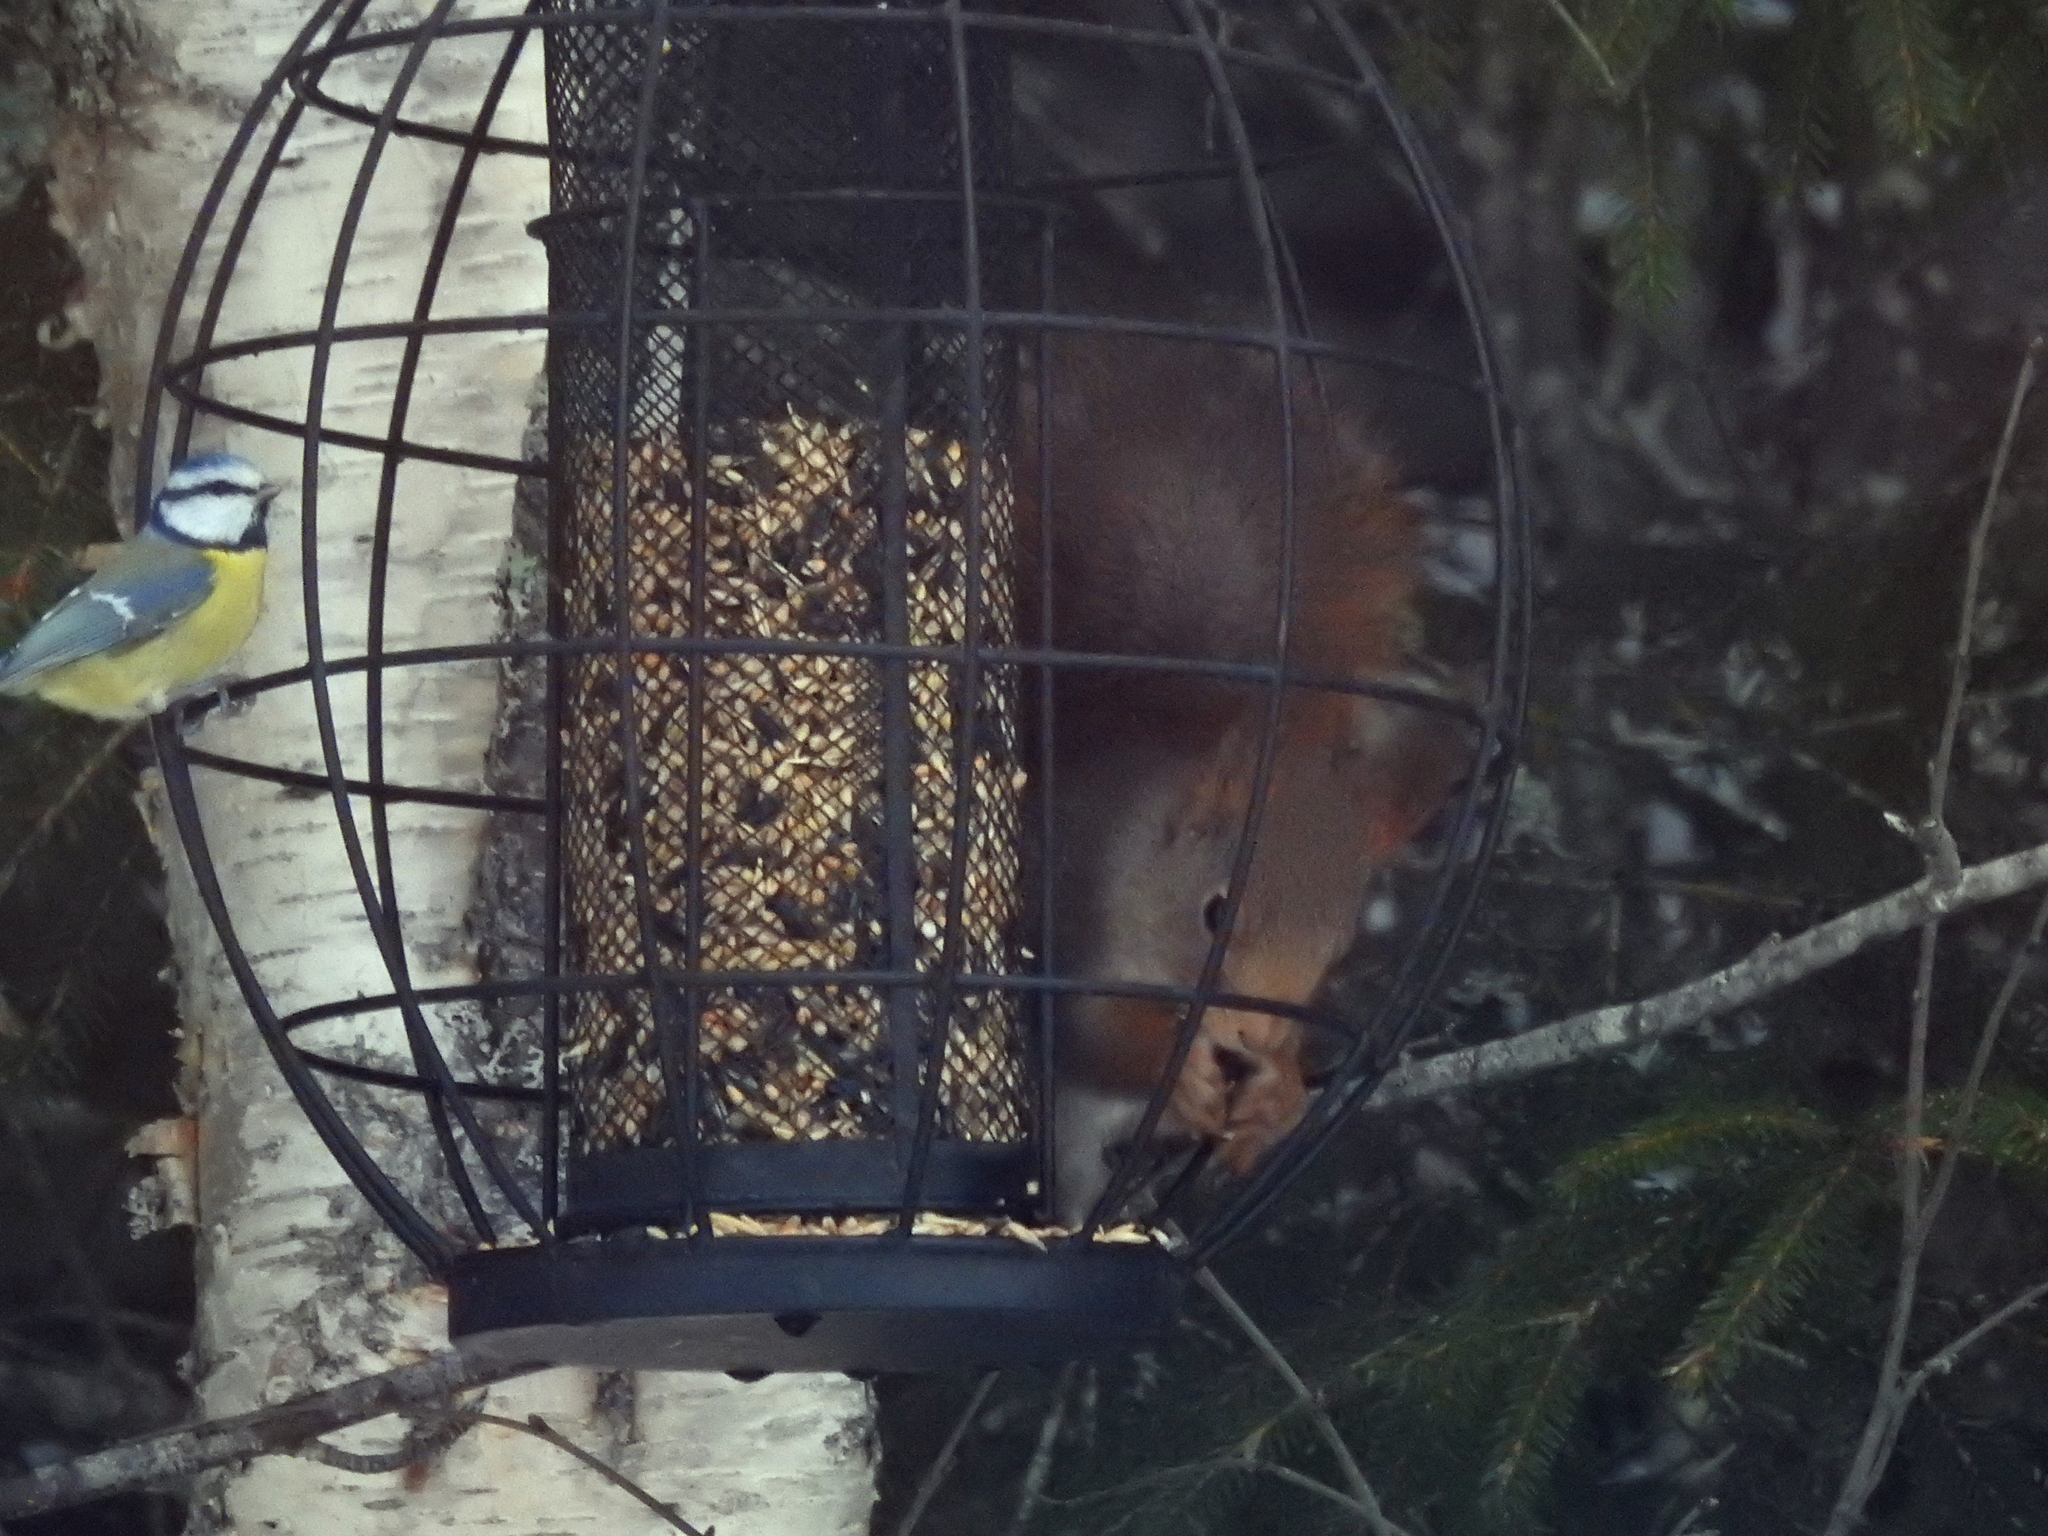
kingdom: Animalia
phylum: Chordata
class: Mammalia
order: Rodentia
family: Sciuridae
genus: Sciurus
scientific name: Sciurus vulgaris
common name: Eurasian red squirrel
